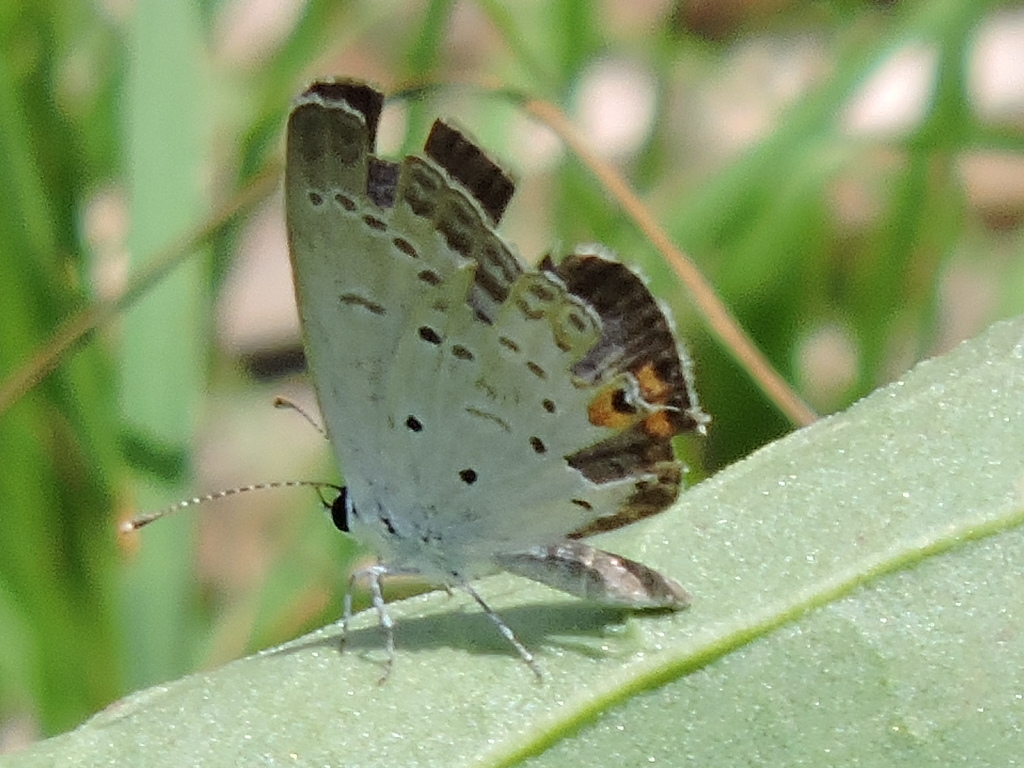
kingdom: Animalia
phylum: Arthropoda
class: Insecta
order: Lepidoptera
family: Lycaenidae
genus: Elkalyce
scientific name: Elkalyce comyntas
